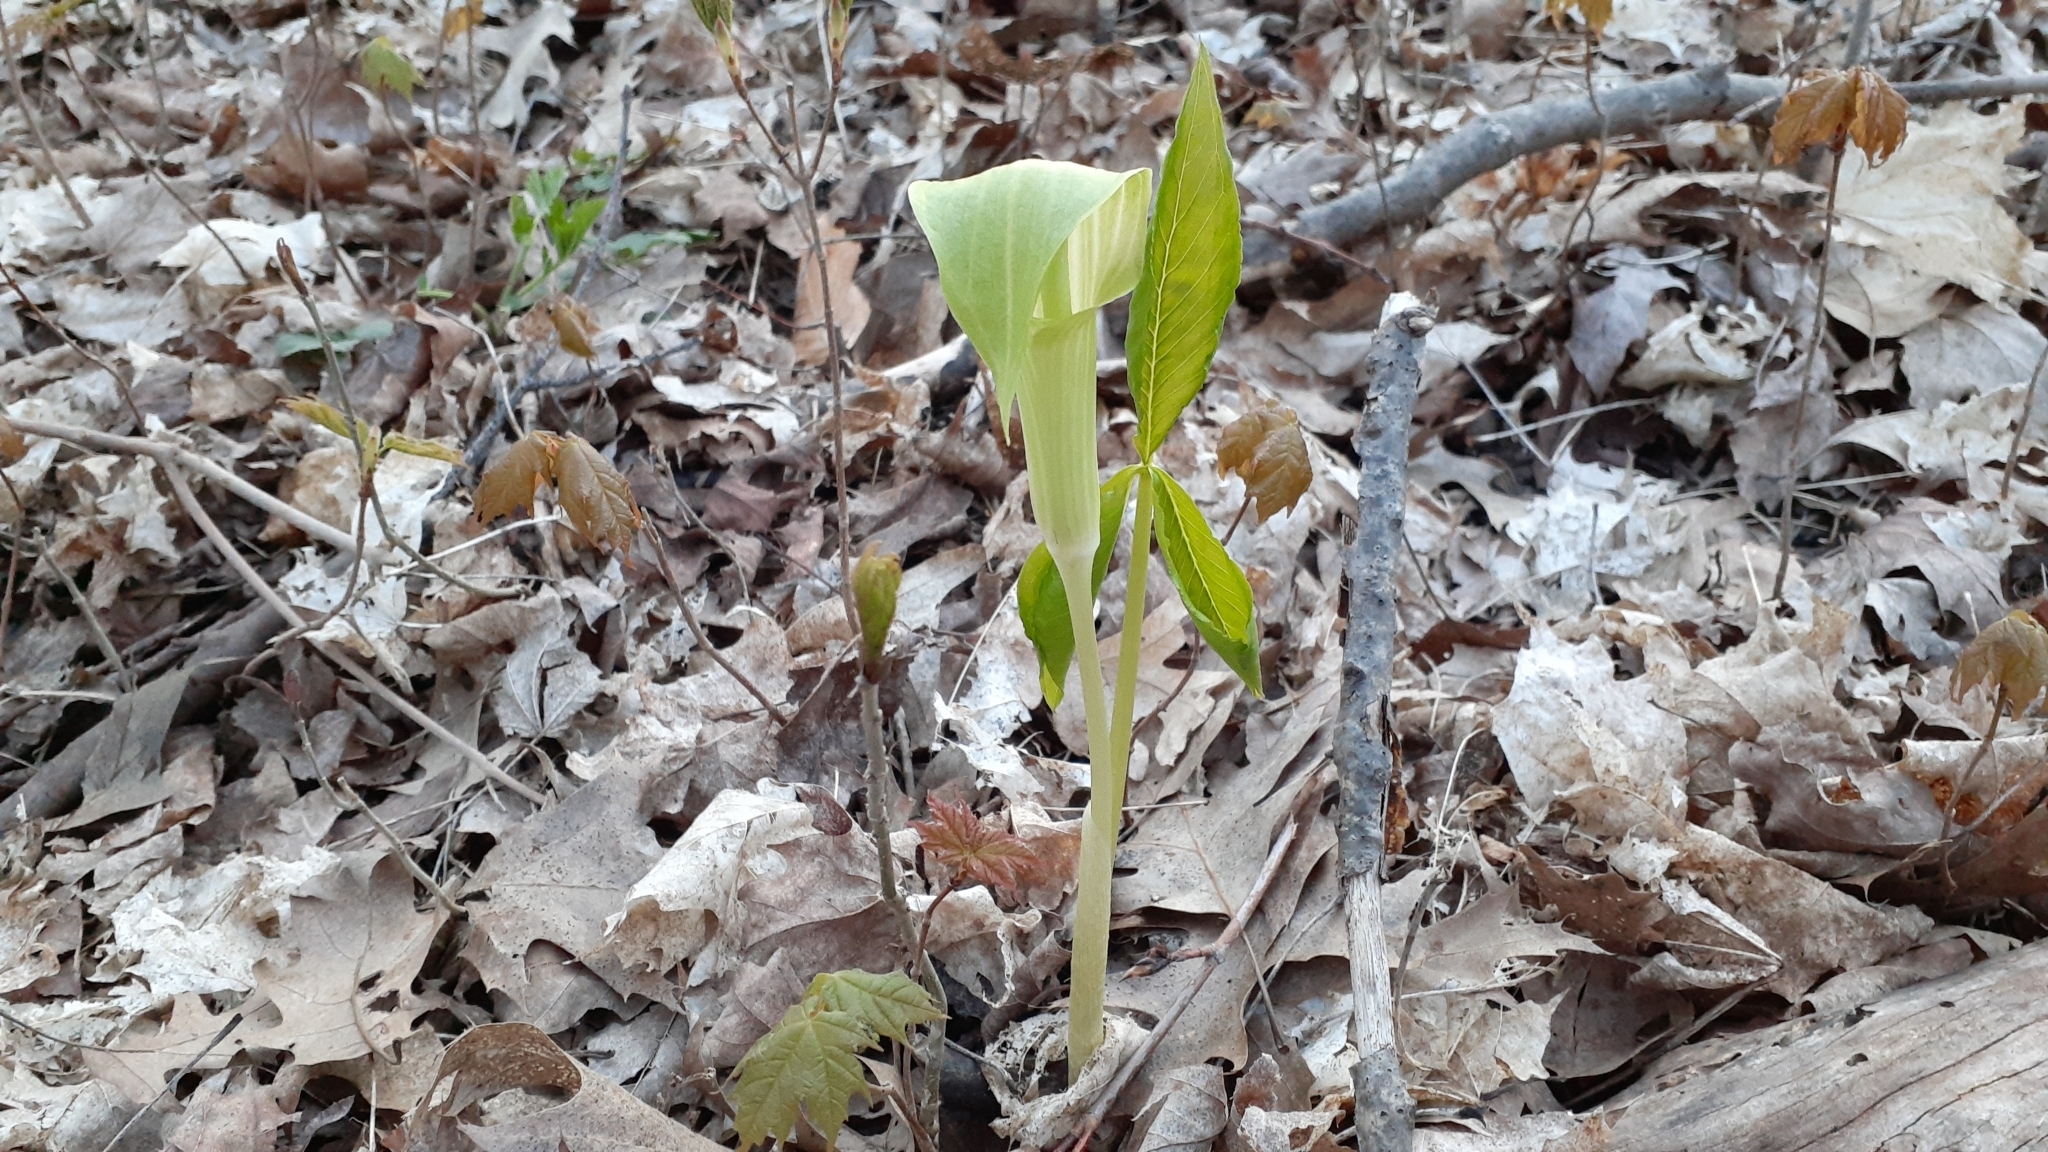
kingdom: Plantae
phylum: Tracheophyta
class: Liliopsida
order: Alismatales
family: Araceae
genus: Arisaema
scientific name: Arisaema triphyllum
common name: Jack-in-the-pulpit
